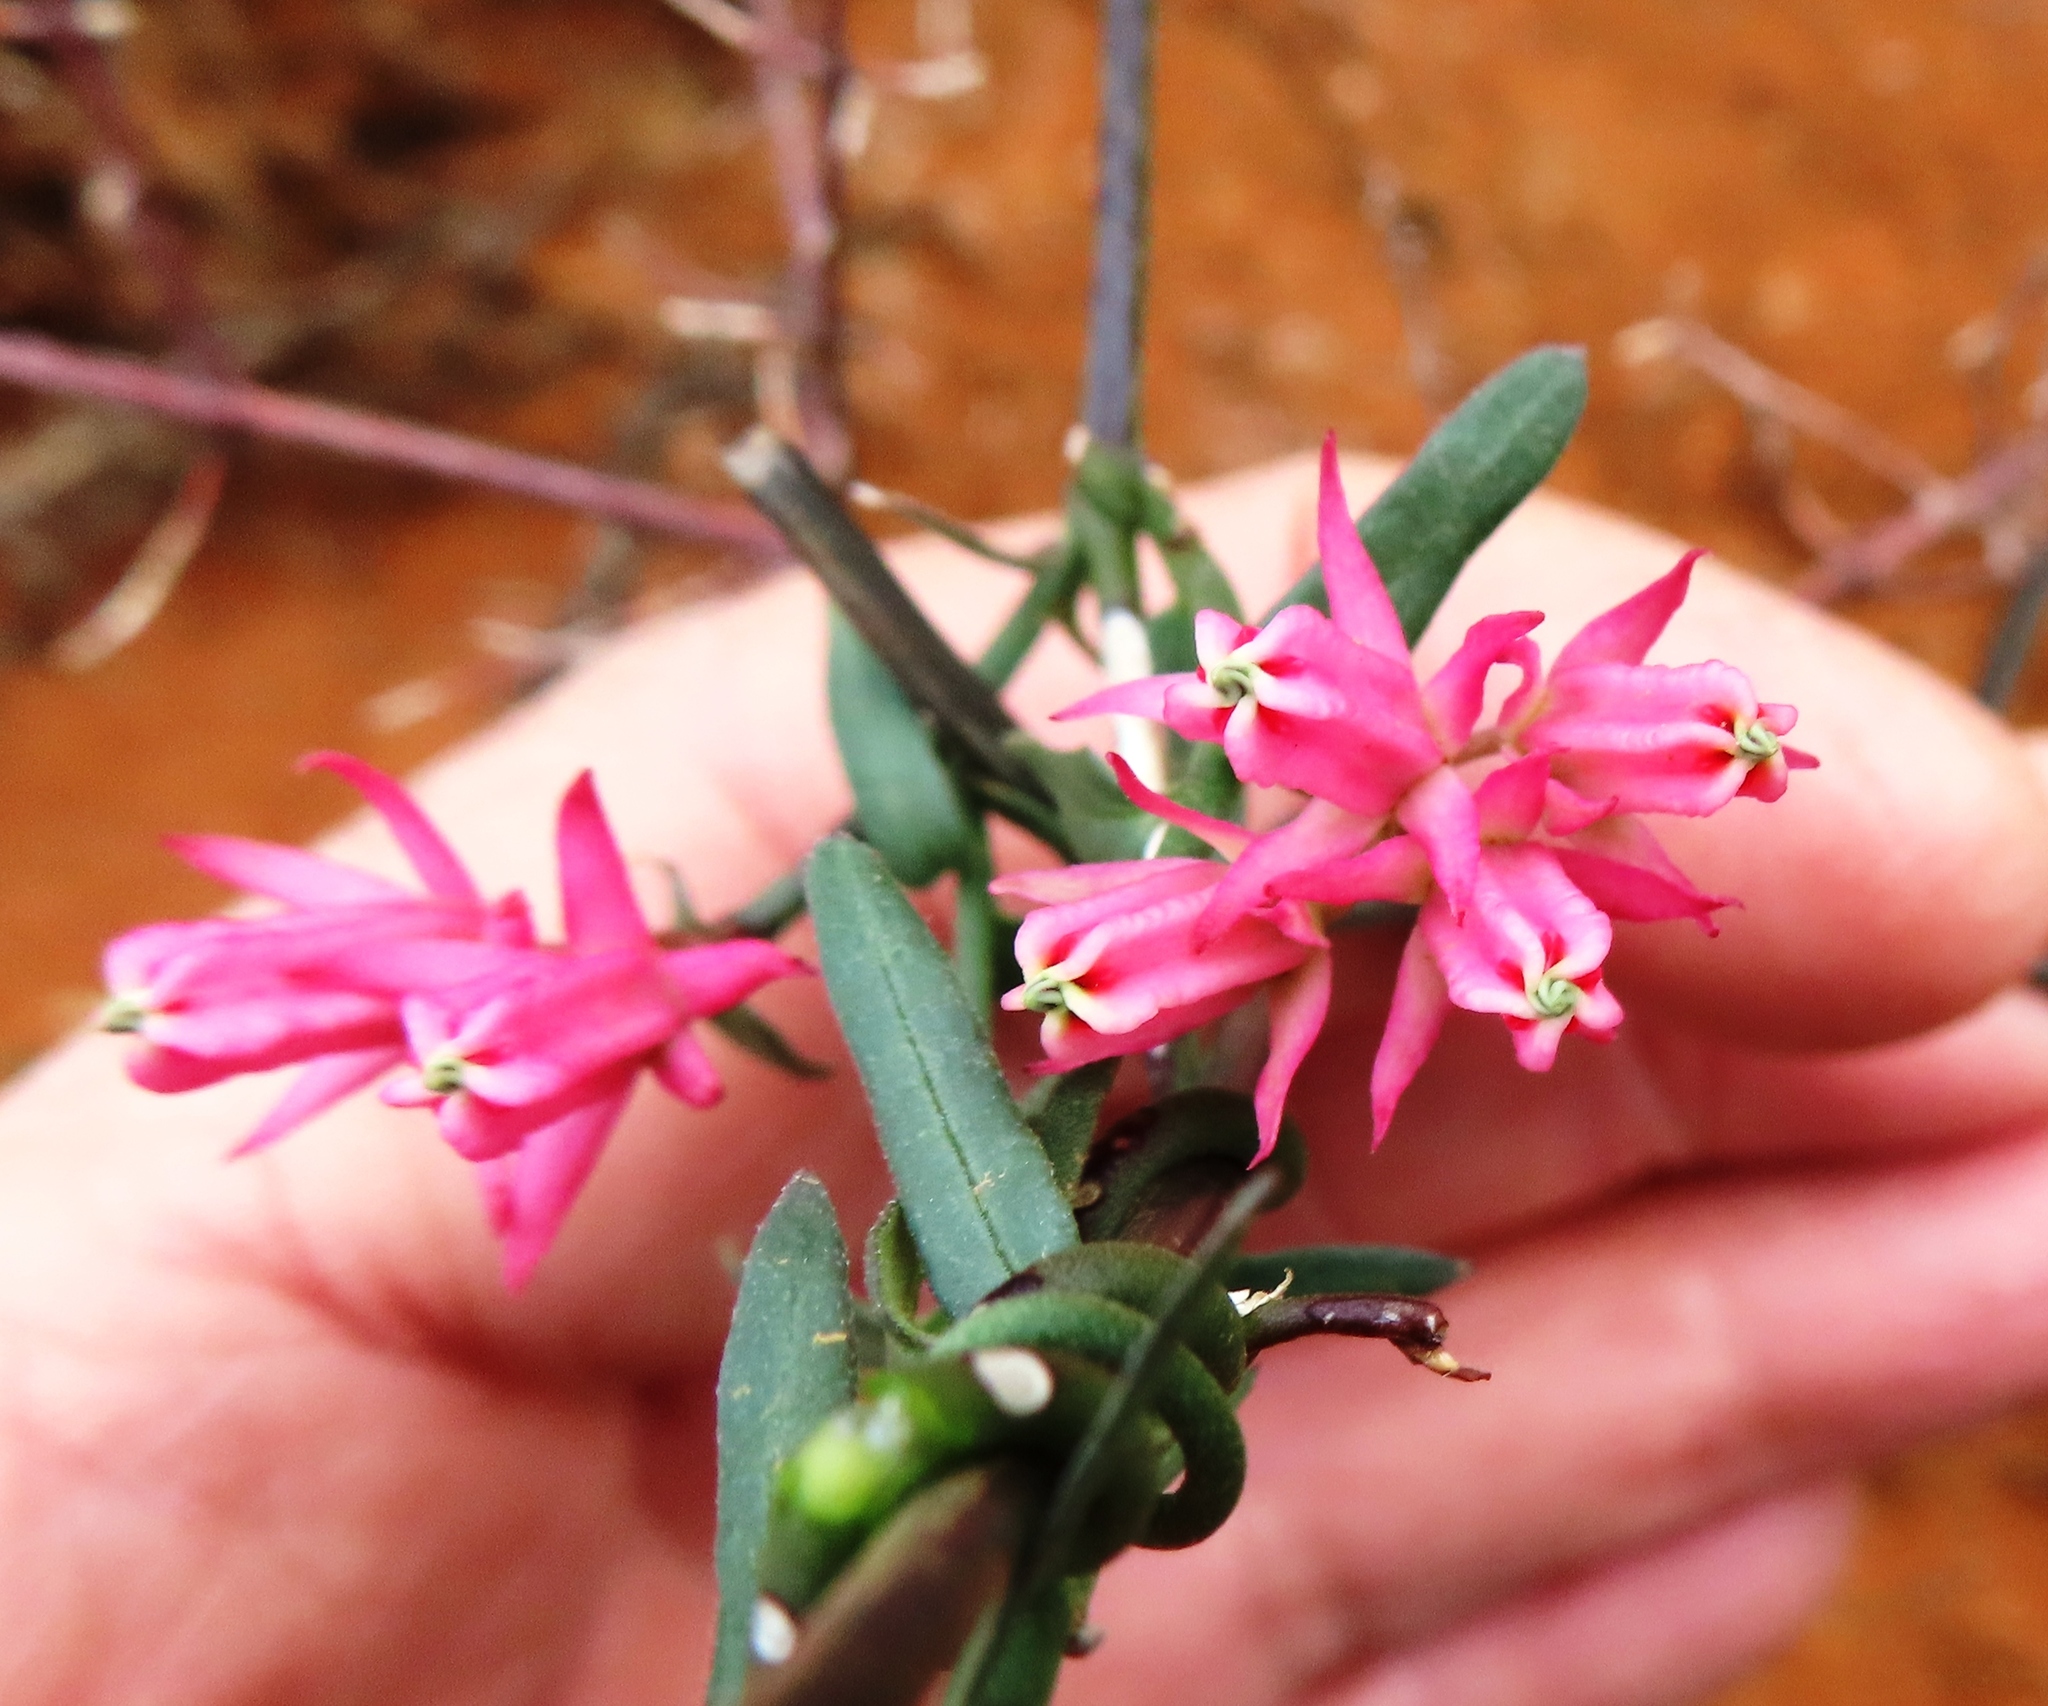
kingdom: Plantae
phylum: Tracheophyta
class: Magnoliopsida
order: Gentianales
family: Apocynaceae
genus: Microloma
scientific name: Microloma sagittatum
